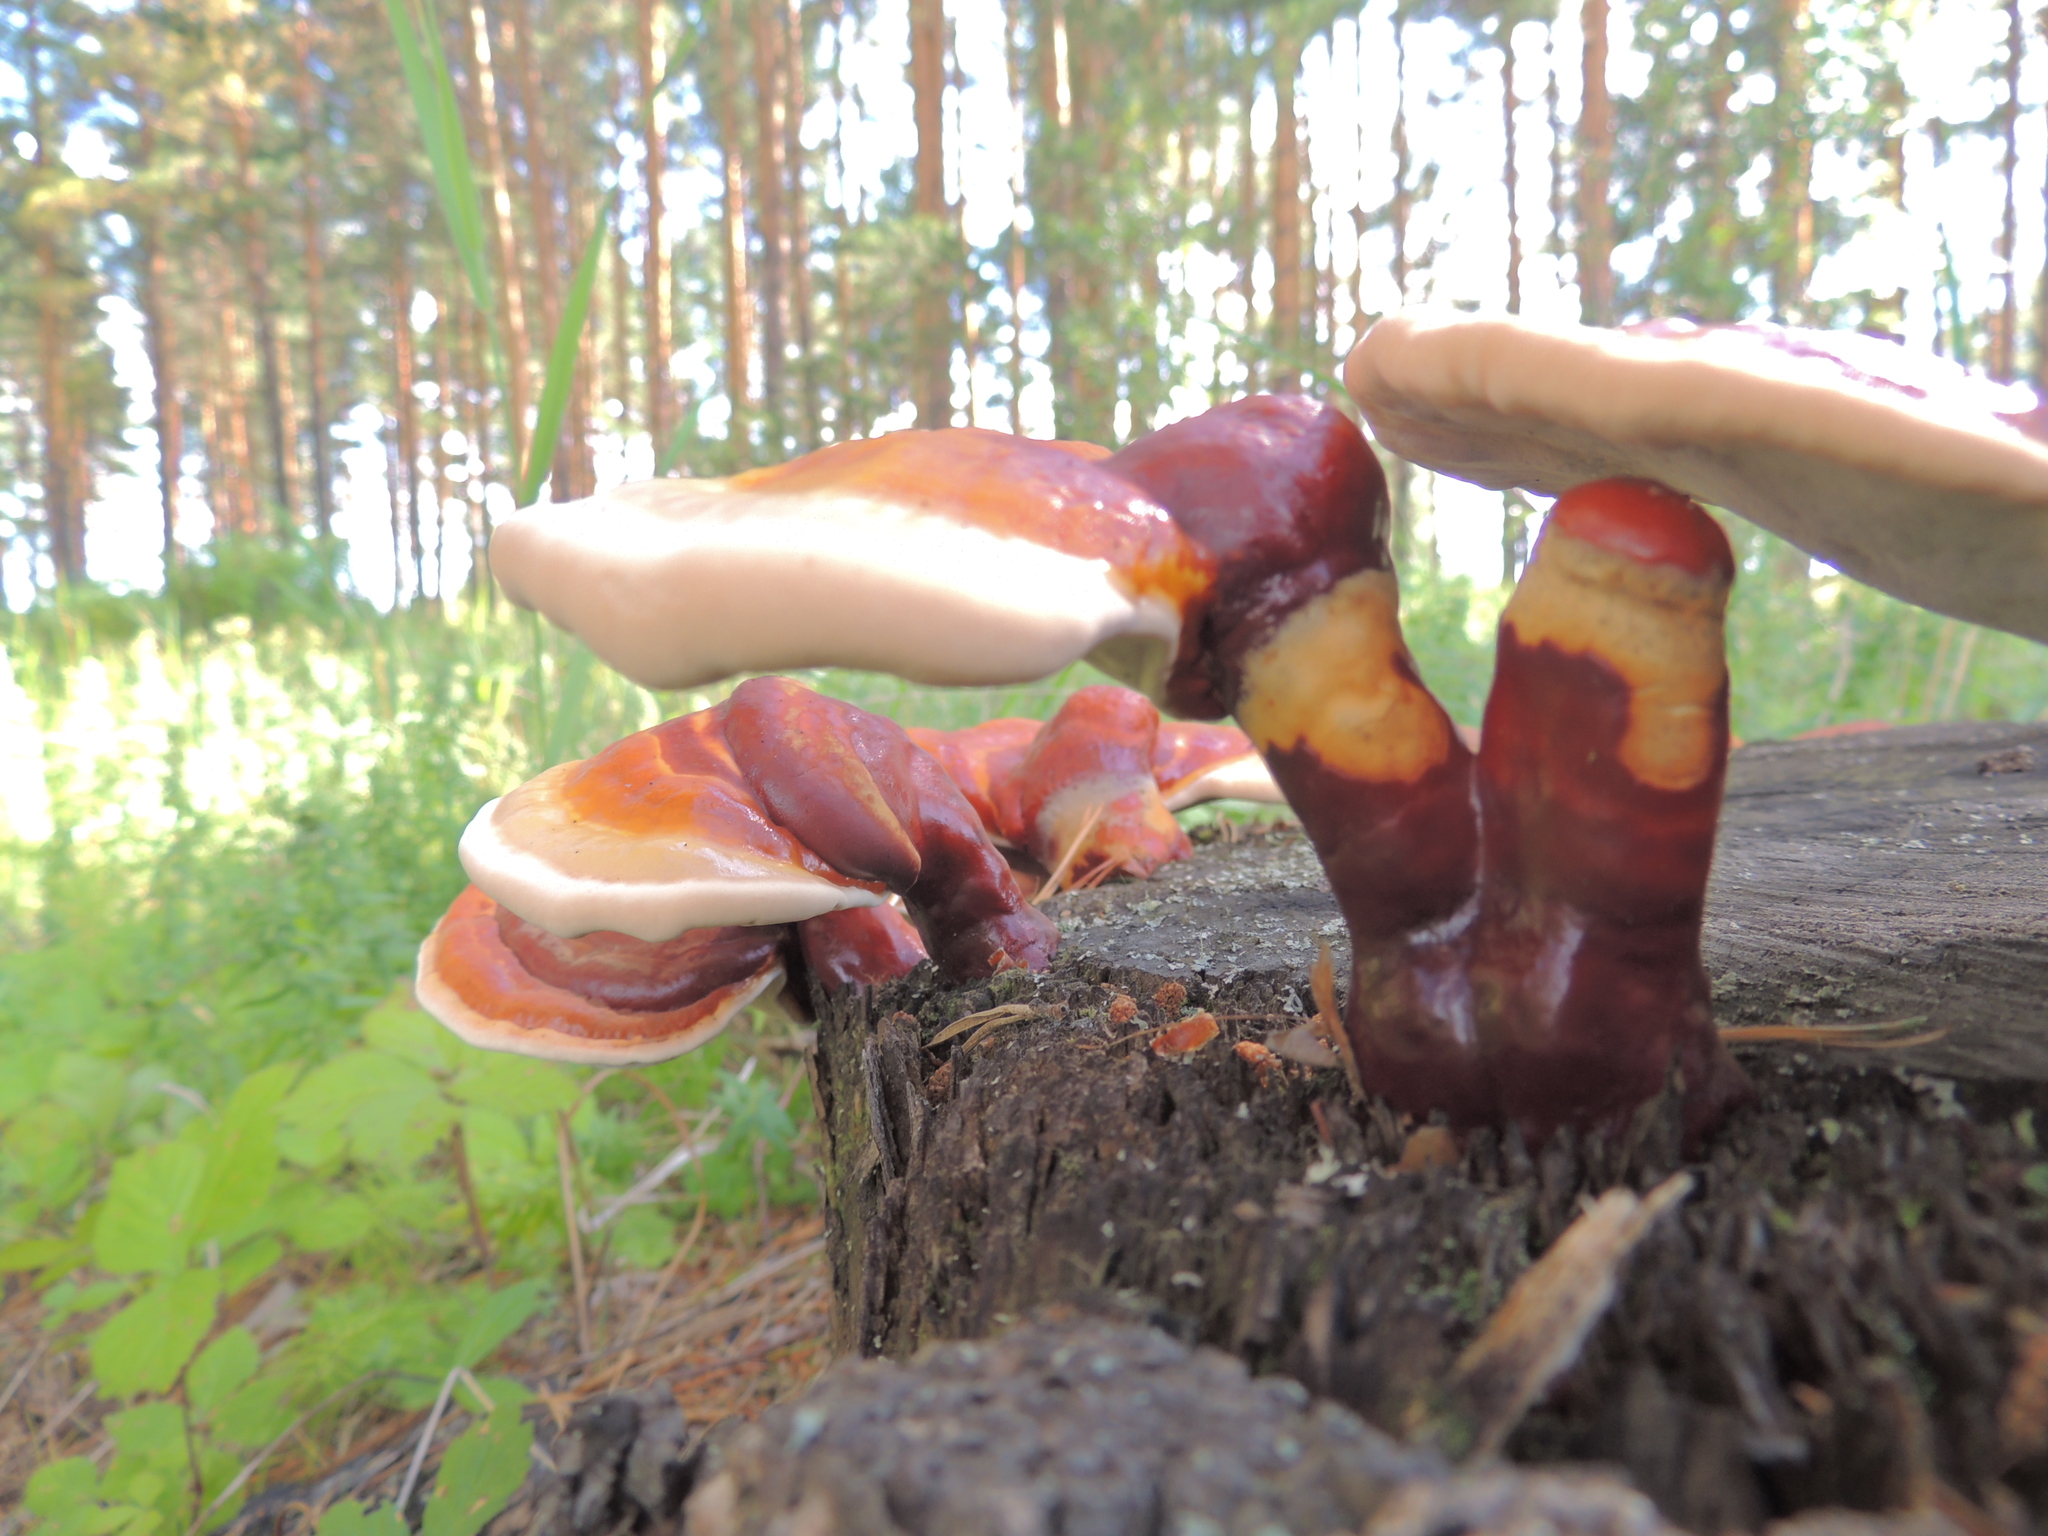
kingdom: Fungi
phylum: Basidiomycota
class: Agaricomycetes
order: Polyporales
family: Polyporaceae
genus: Ganoderma
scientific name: Ganoderma lucidum
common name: Lacquered bracket
